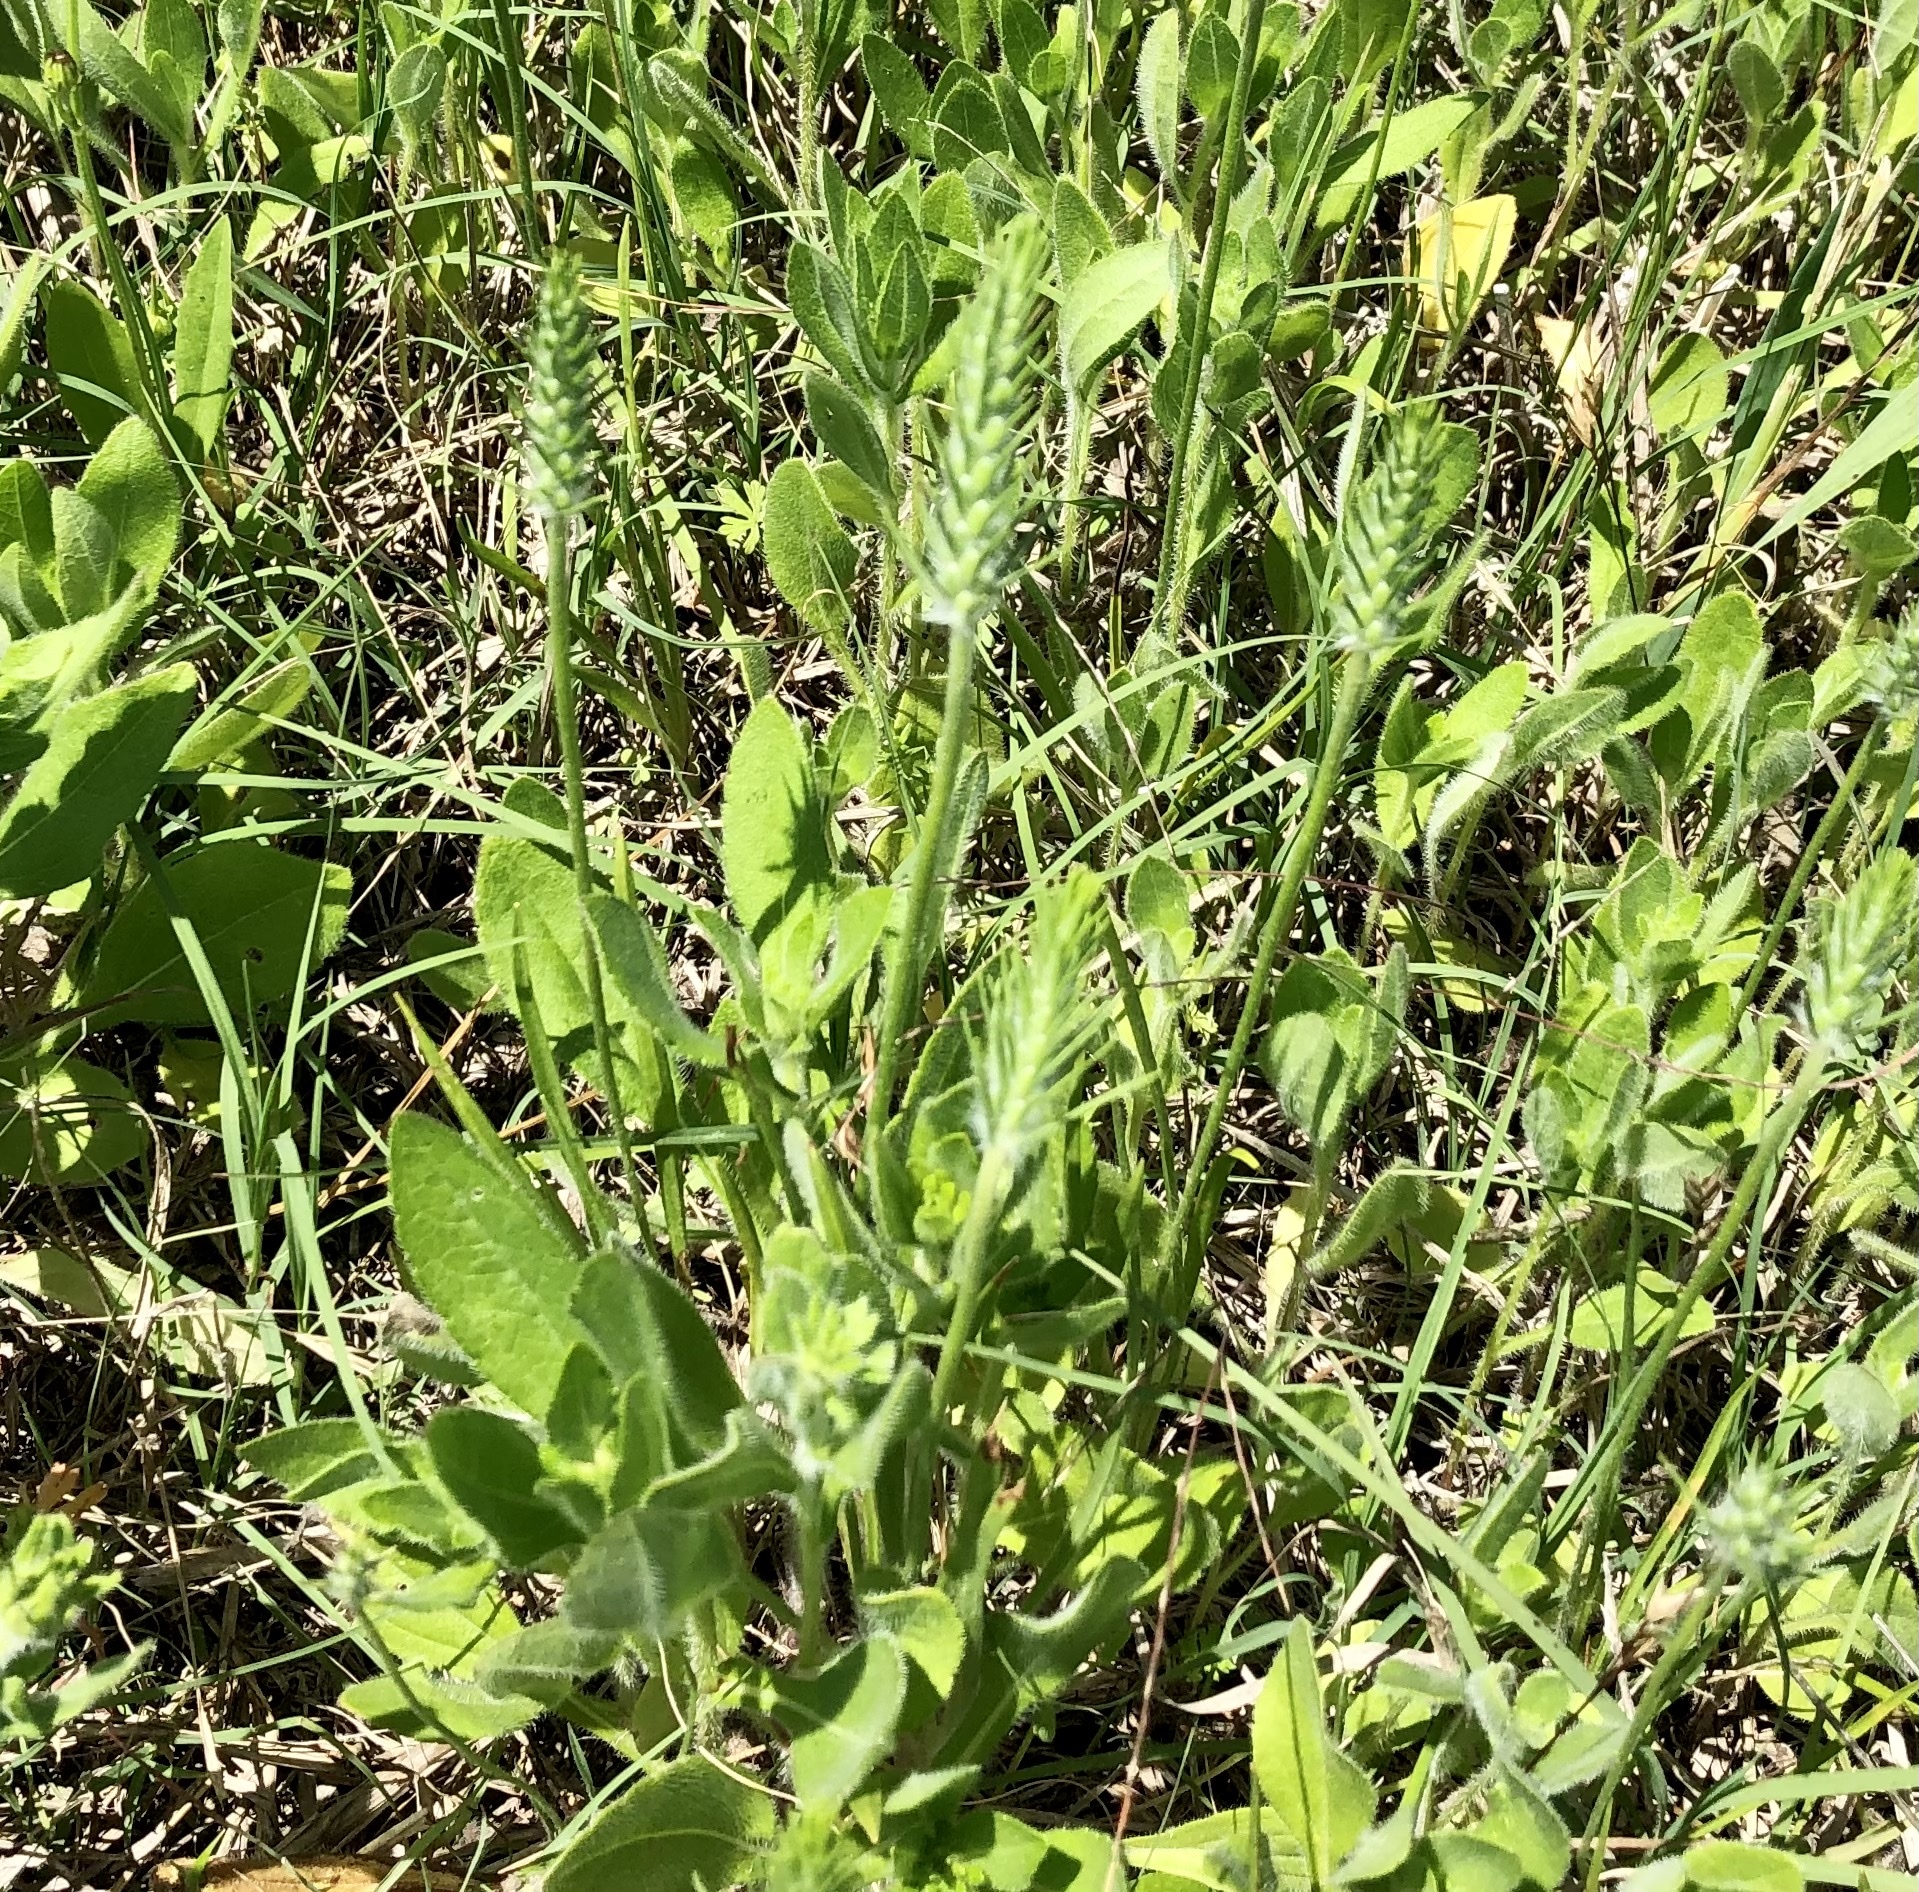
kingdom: Plantae
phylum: Tracheophyta
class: Magnoliopsida
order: Lamiales
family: Plantaginaceae
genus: Plantago
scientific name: Plantago aristata
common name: Bracted plantain
